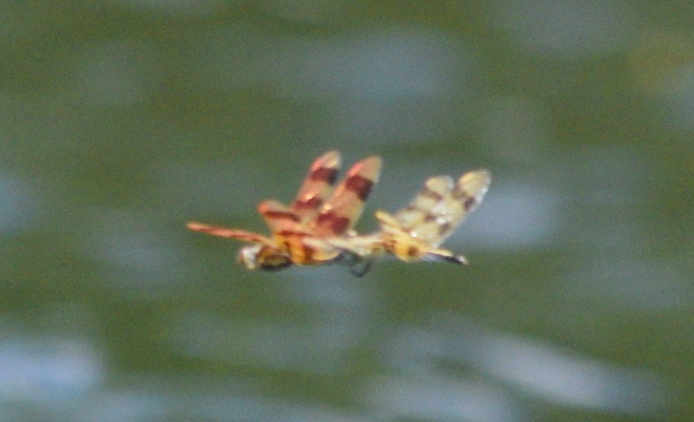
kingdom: Animalia
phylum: Arthropoda
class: Insecta
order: Odonata
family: Libellulidae
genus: Celithemis
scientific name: Celithemis eponina
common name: Halloween pennant
